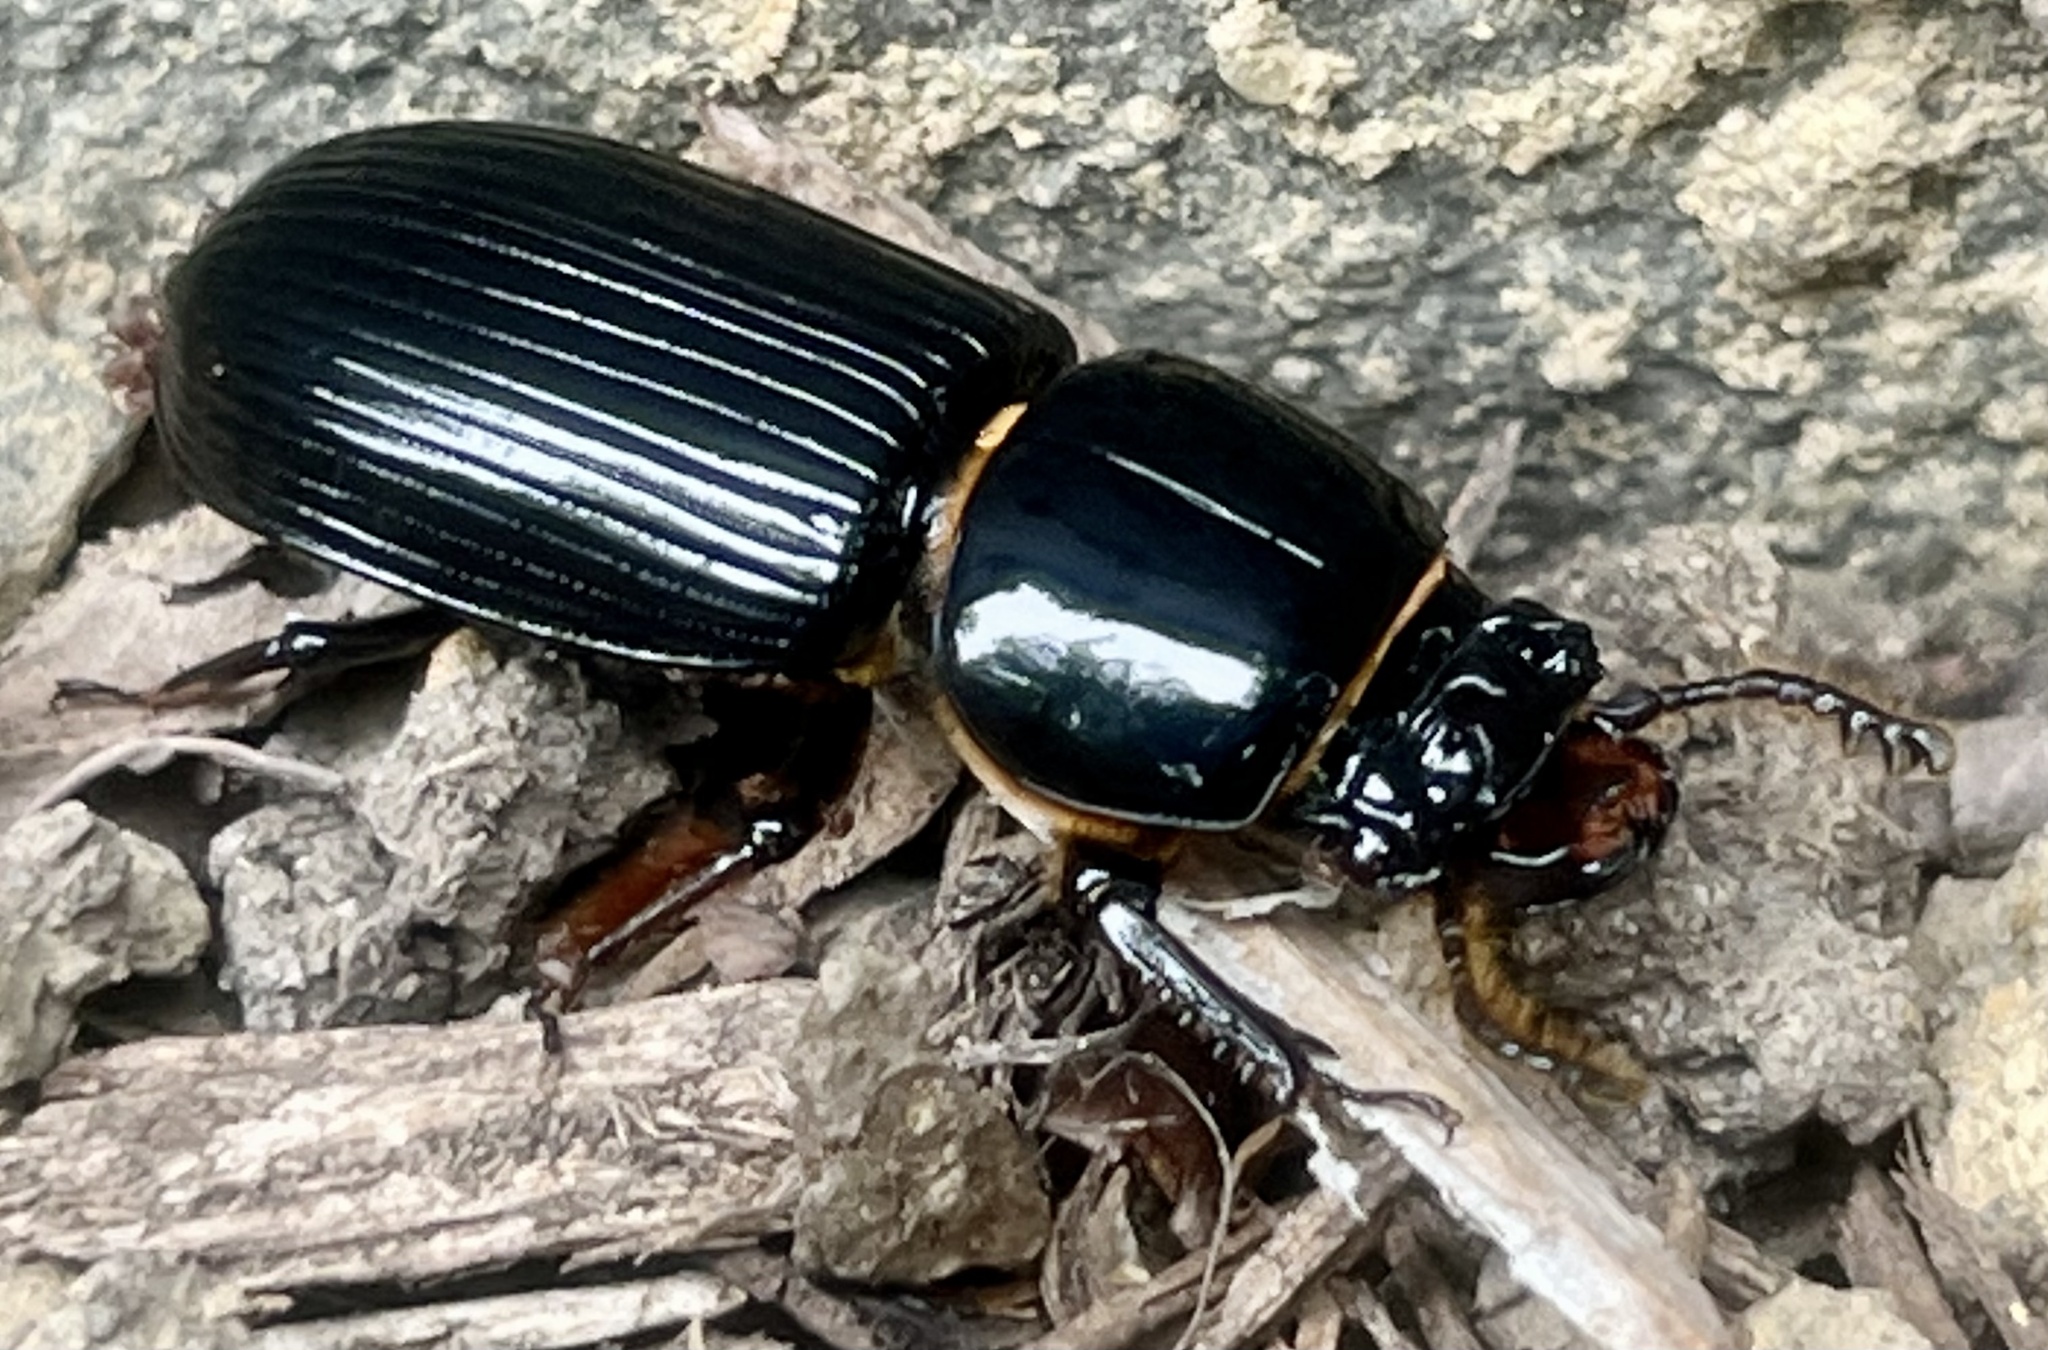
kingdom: Animalia
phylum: Arthropoda
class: Insecta
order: Coleoptera
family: Passalidae
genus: Odontotaenius
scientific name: Odontotaenius disjunctus
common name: Patent leather beetle
